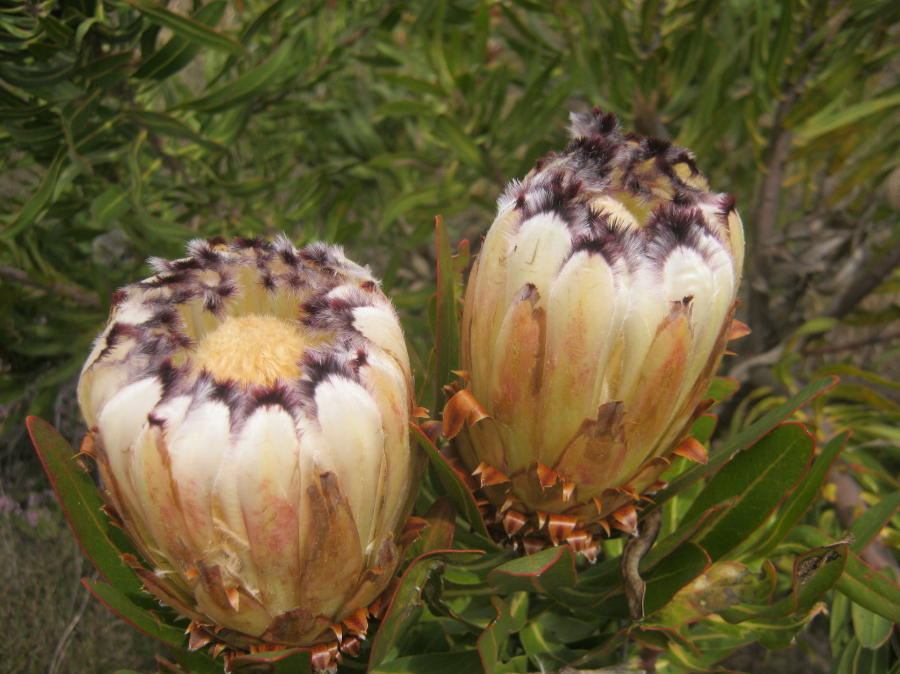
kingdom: Plantae
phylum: Tracheophyta
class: Magnoliopsida
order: Proteales
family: Proteaceae
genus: Protea
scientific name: Protea neriifolia
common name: Blue sugarbush
